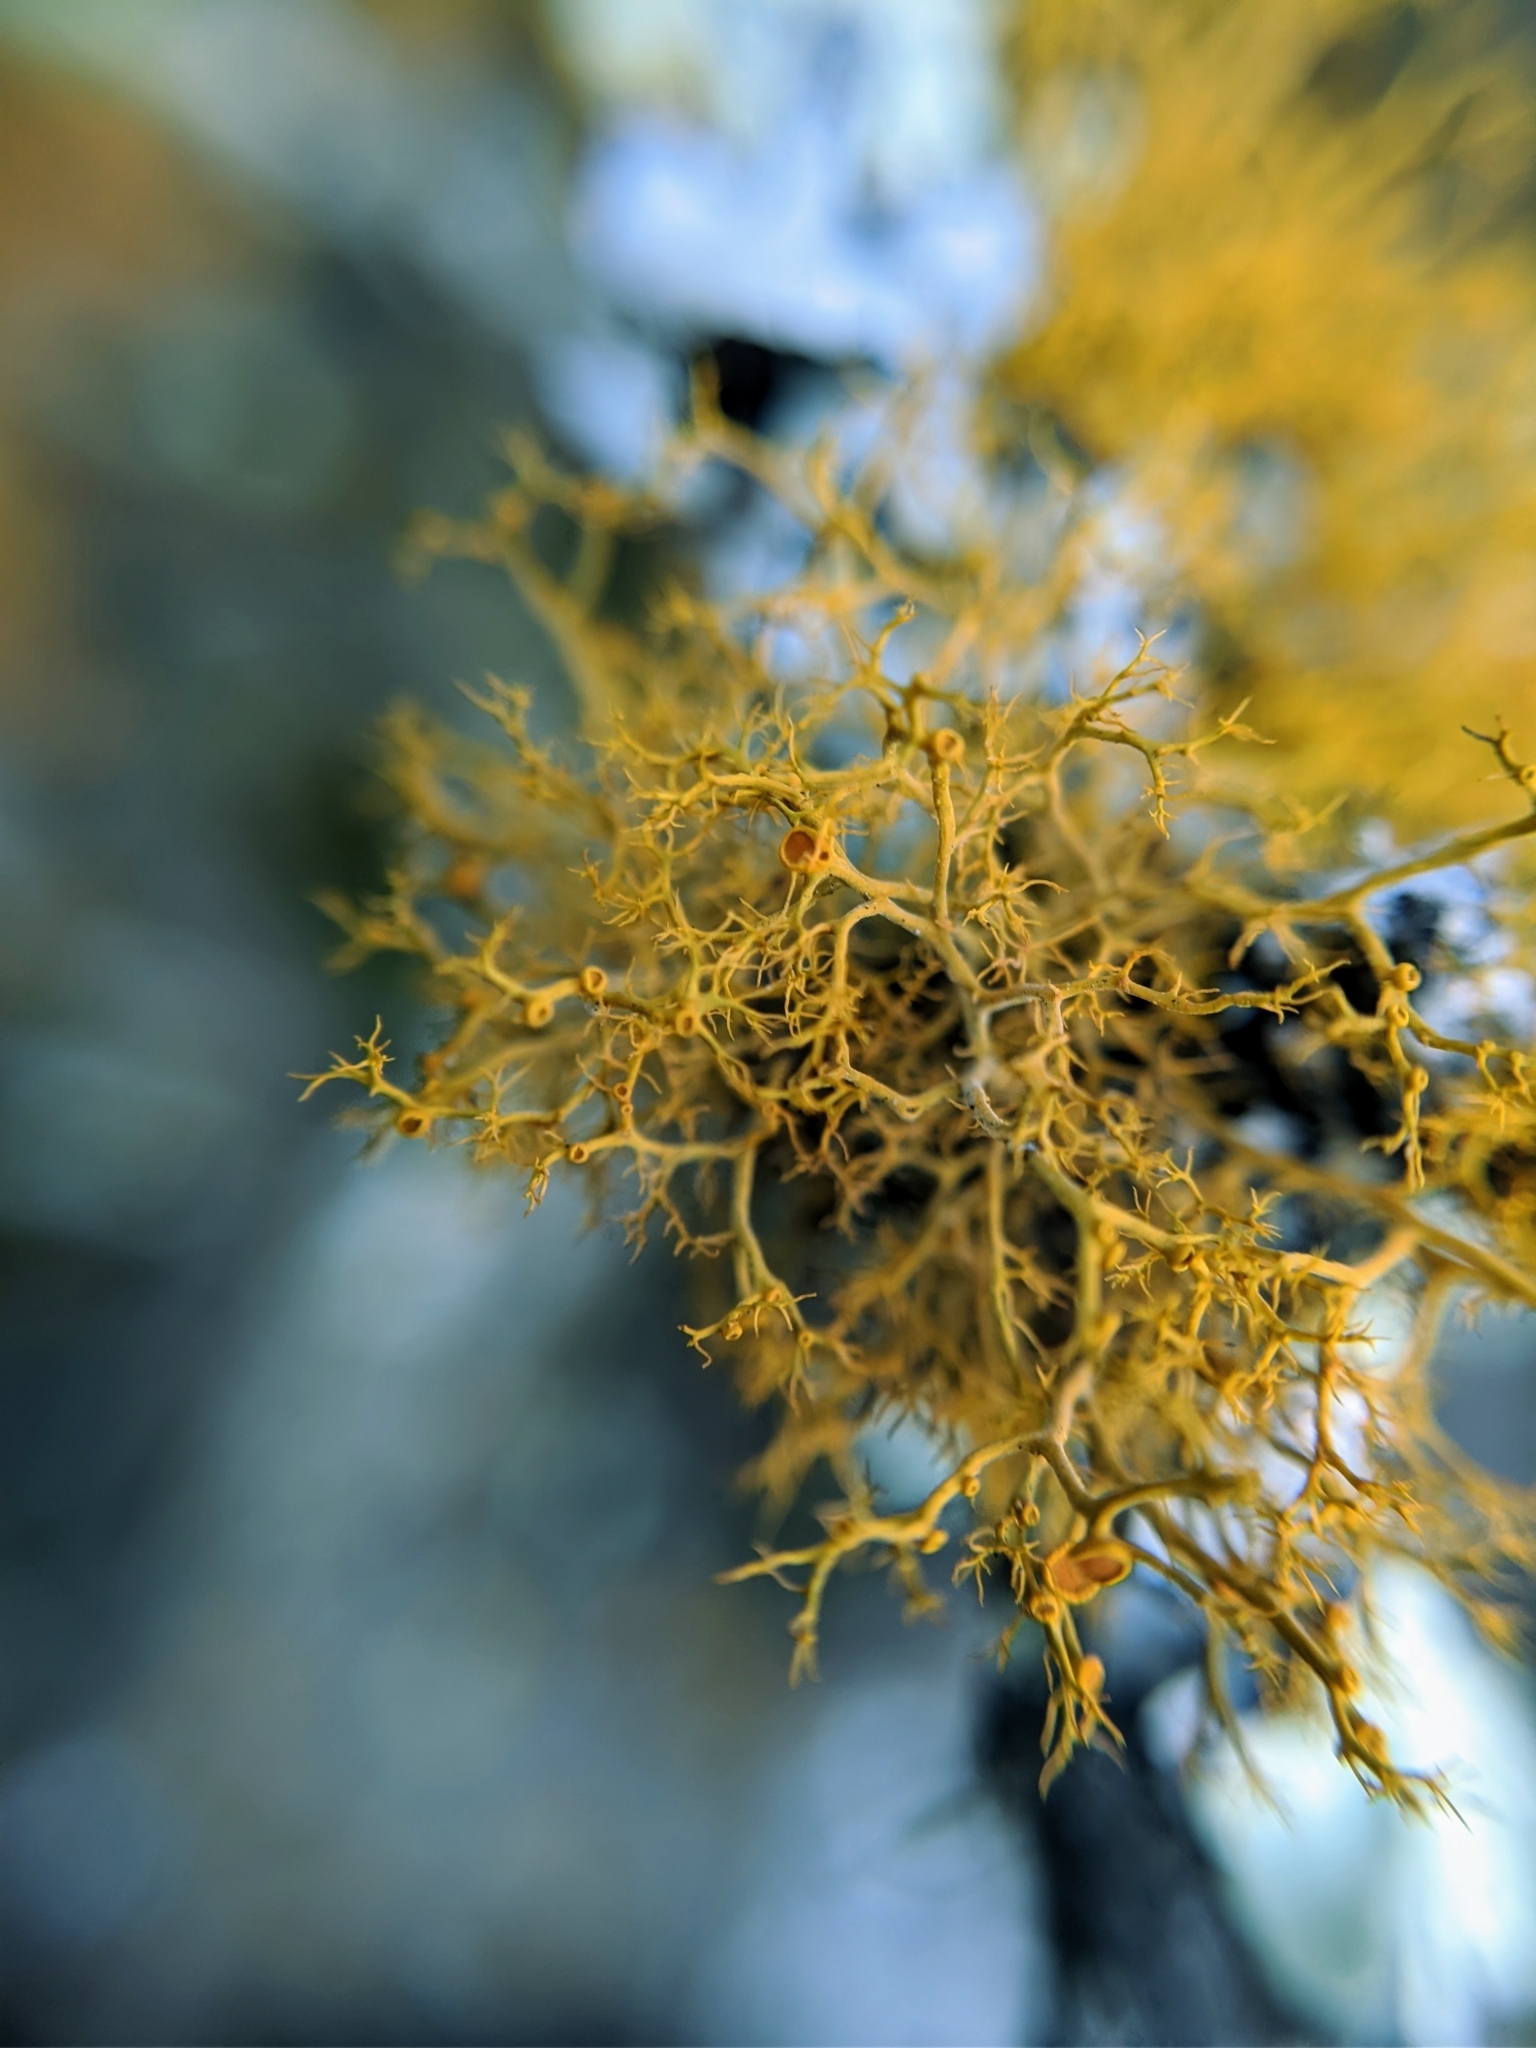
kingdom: Fungi
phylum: Ascomycota
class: Lecanoromycetes
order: Teloschistales
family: Teloschistaceae
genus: Teloschistes
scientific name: Teloschistes flavicans
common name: Golden hair-lichen
